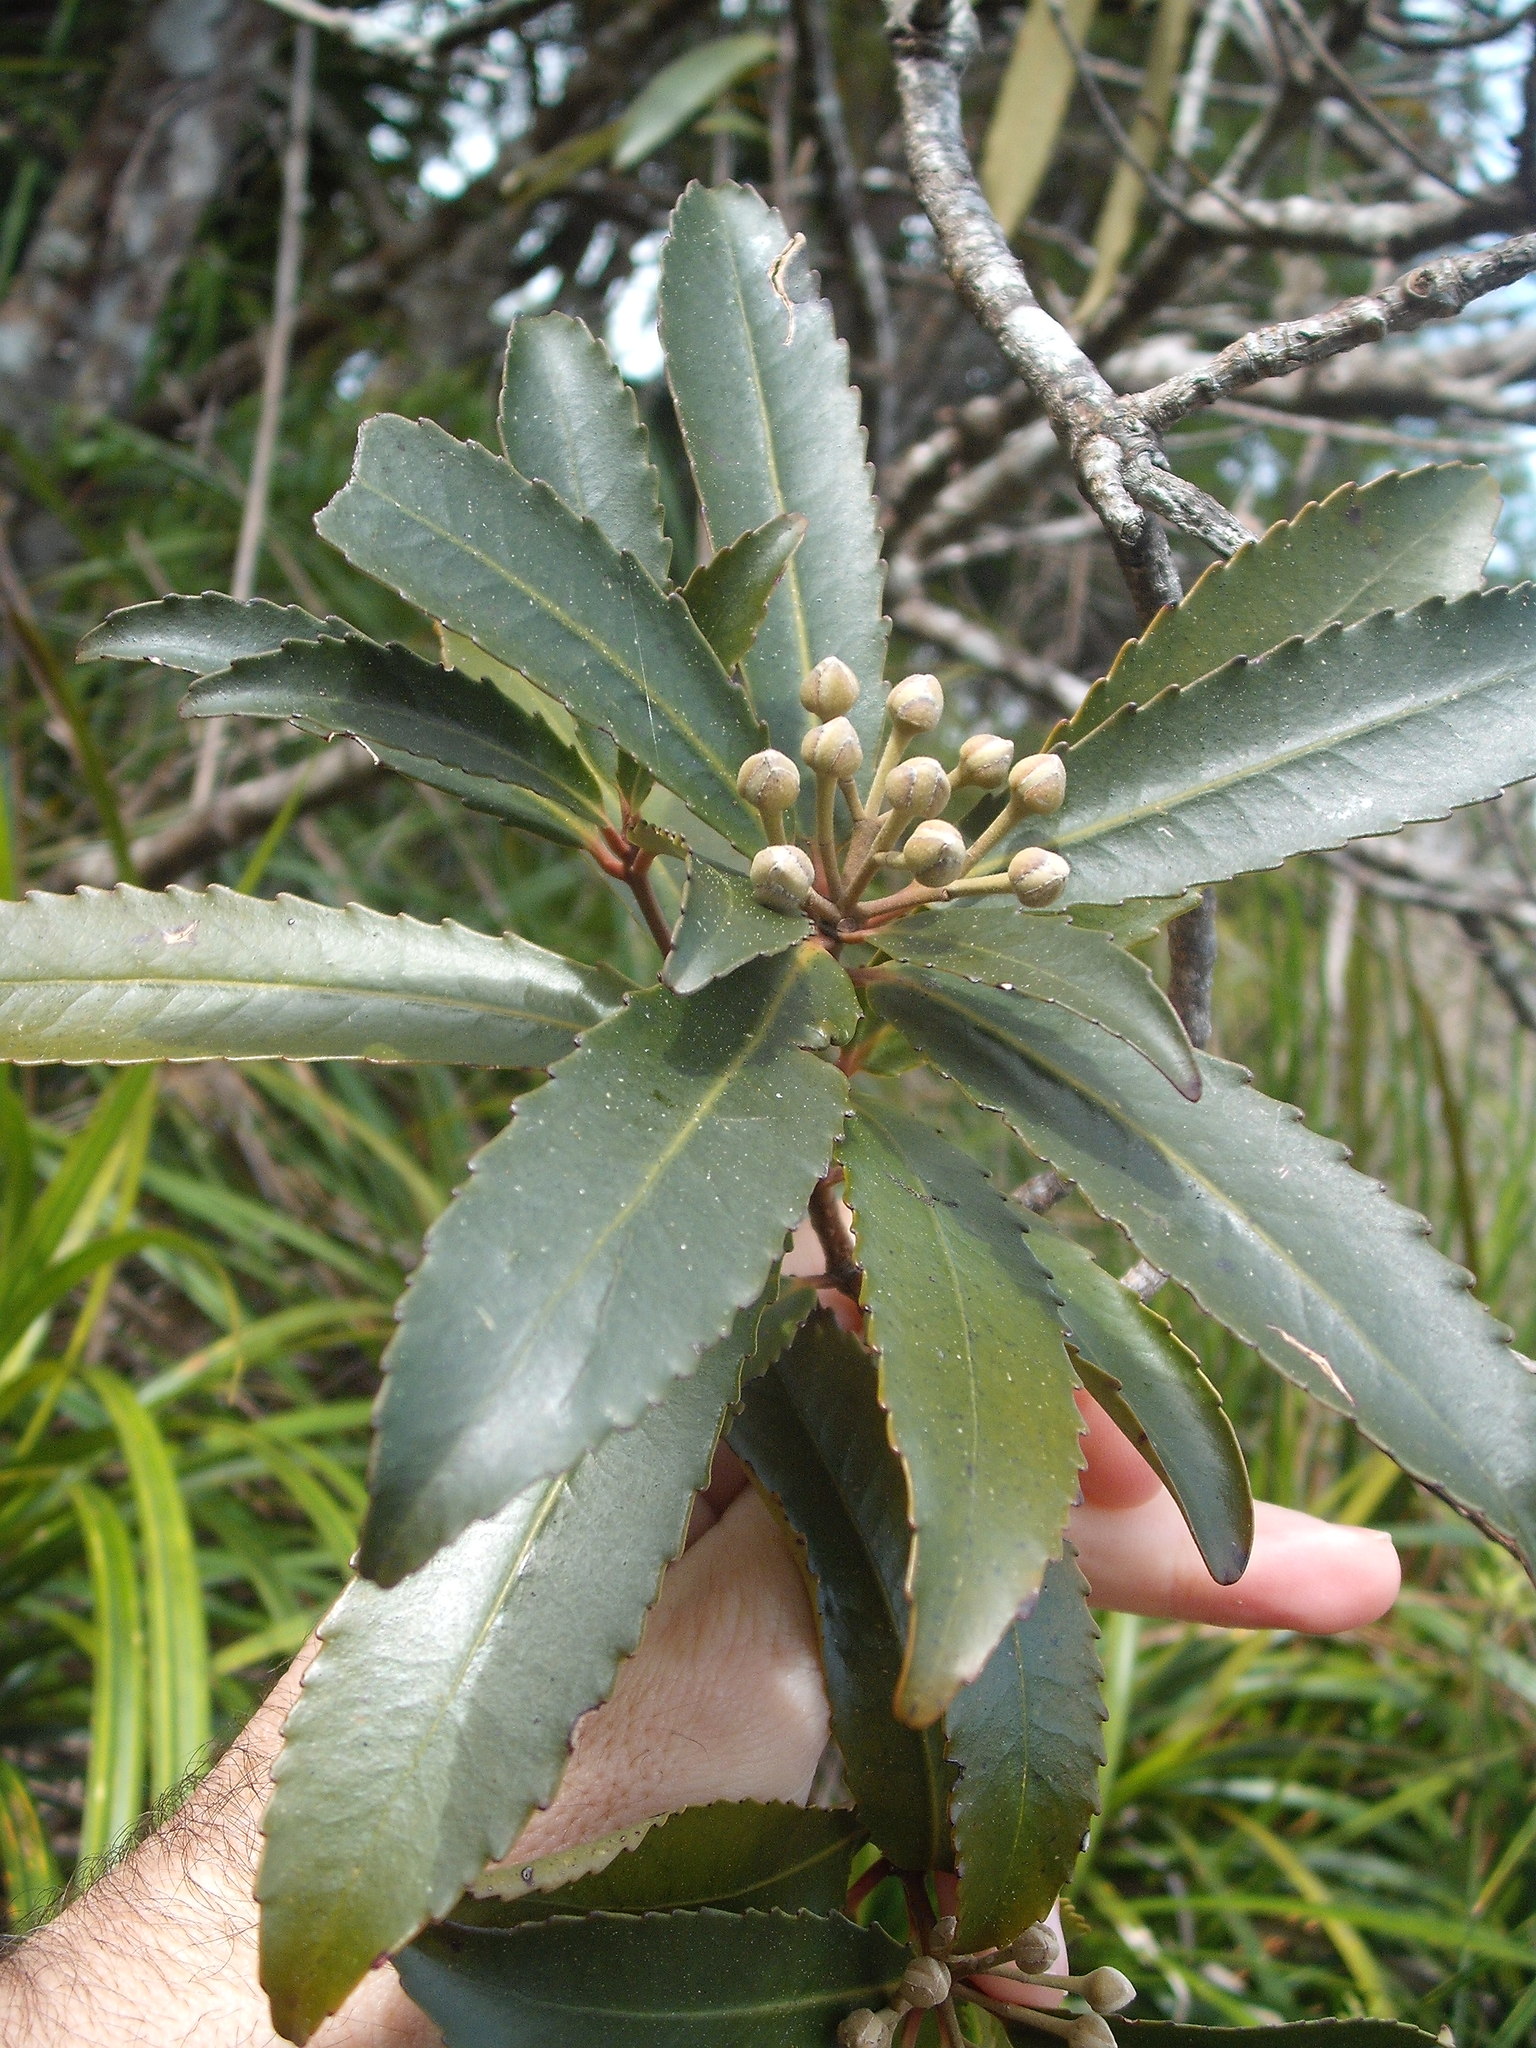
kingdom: Plantae
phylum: Tracheophyta
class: Magnoliopsida
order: Crossosomatales
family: Ixerbaceae
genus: Ixerba
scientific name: Ixerba brexioides
